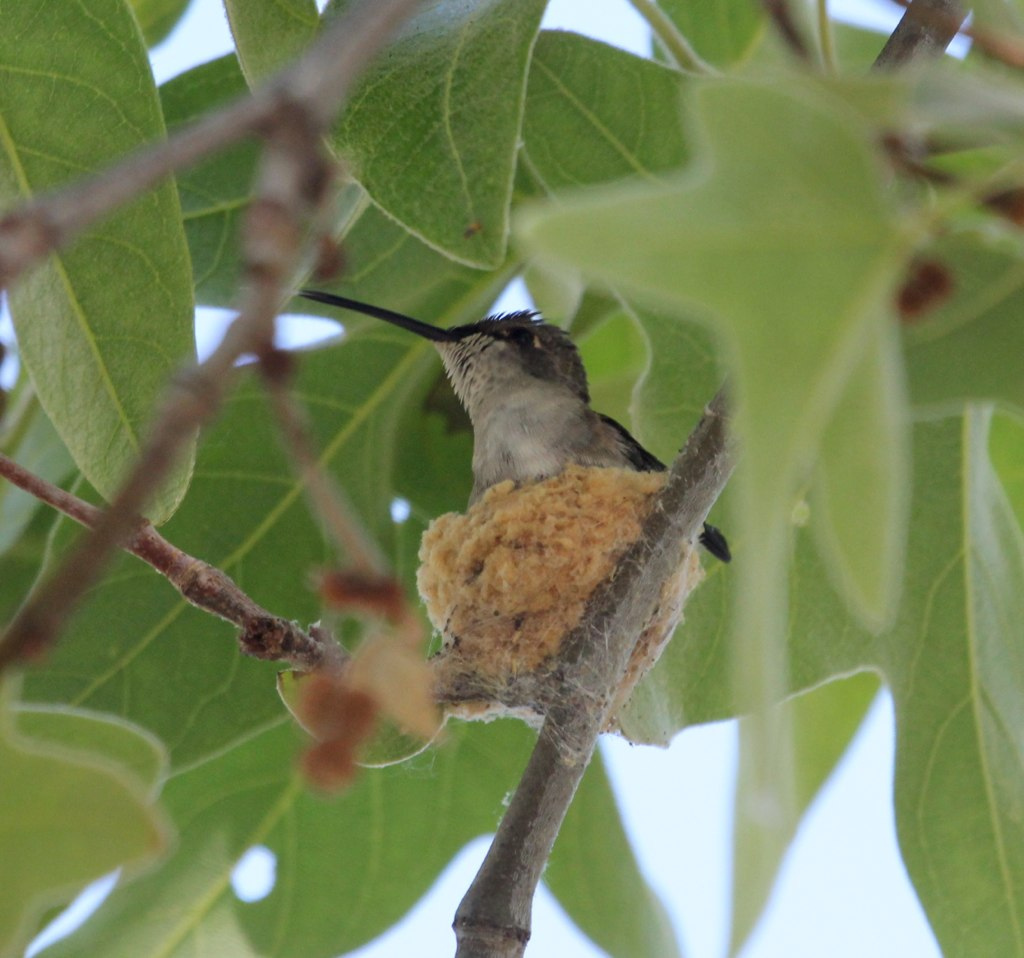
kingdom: Animalia
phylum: Chordata
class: Aves
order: Apodiformes
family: Trochilidae
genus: Archilochus
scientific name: Archilochus alexandri
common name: Black-chinned hummingbird
